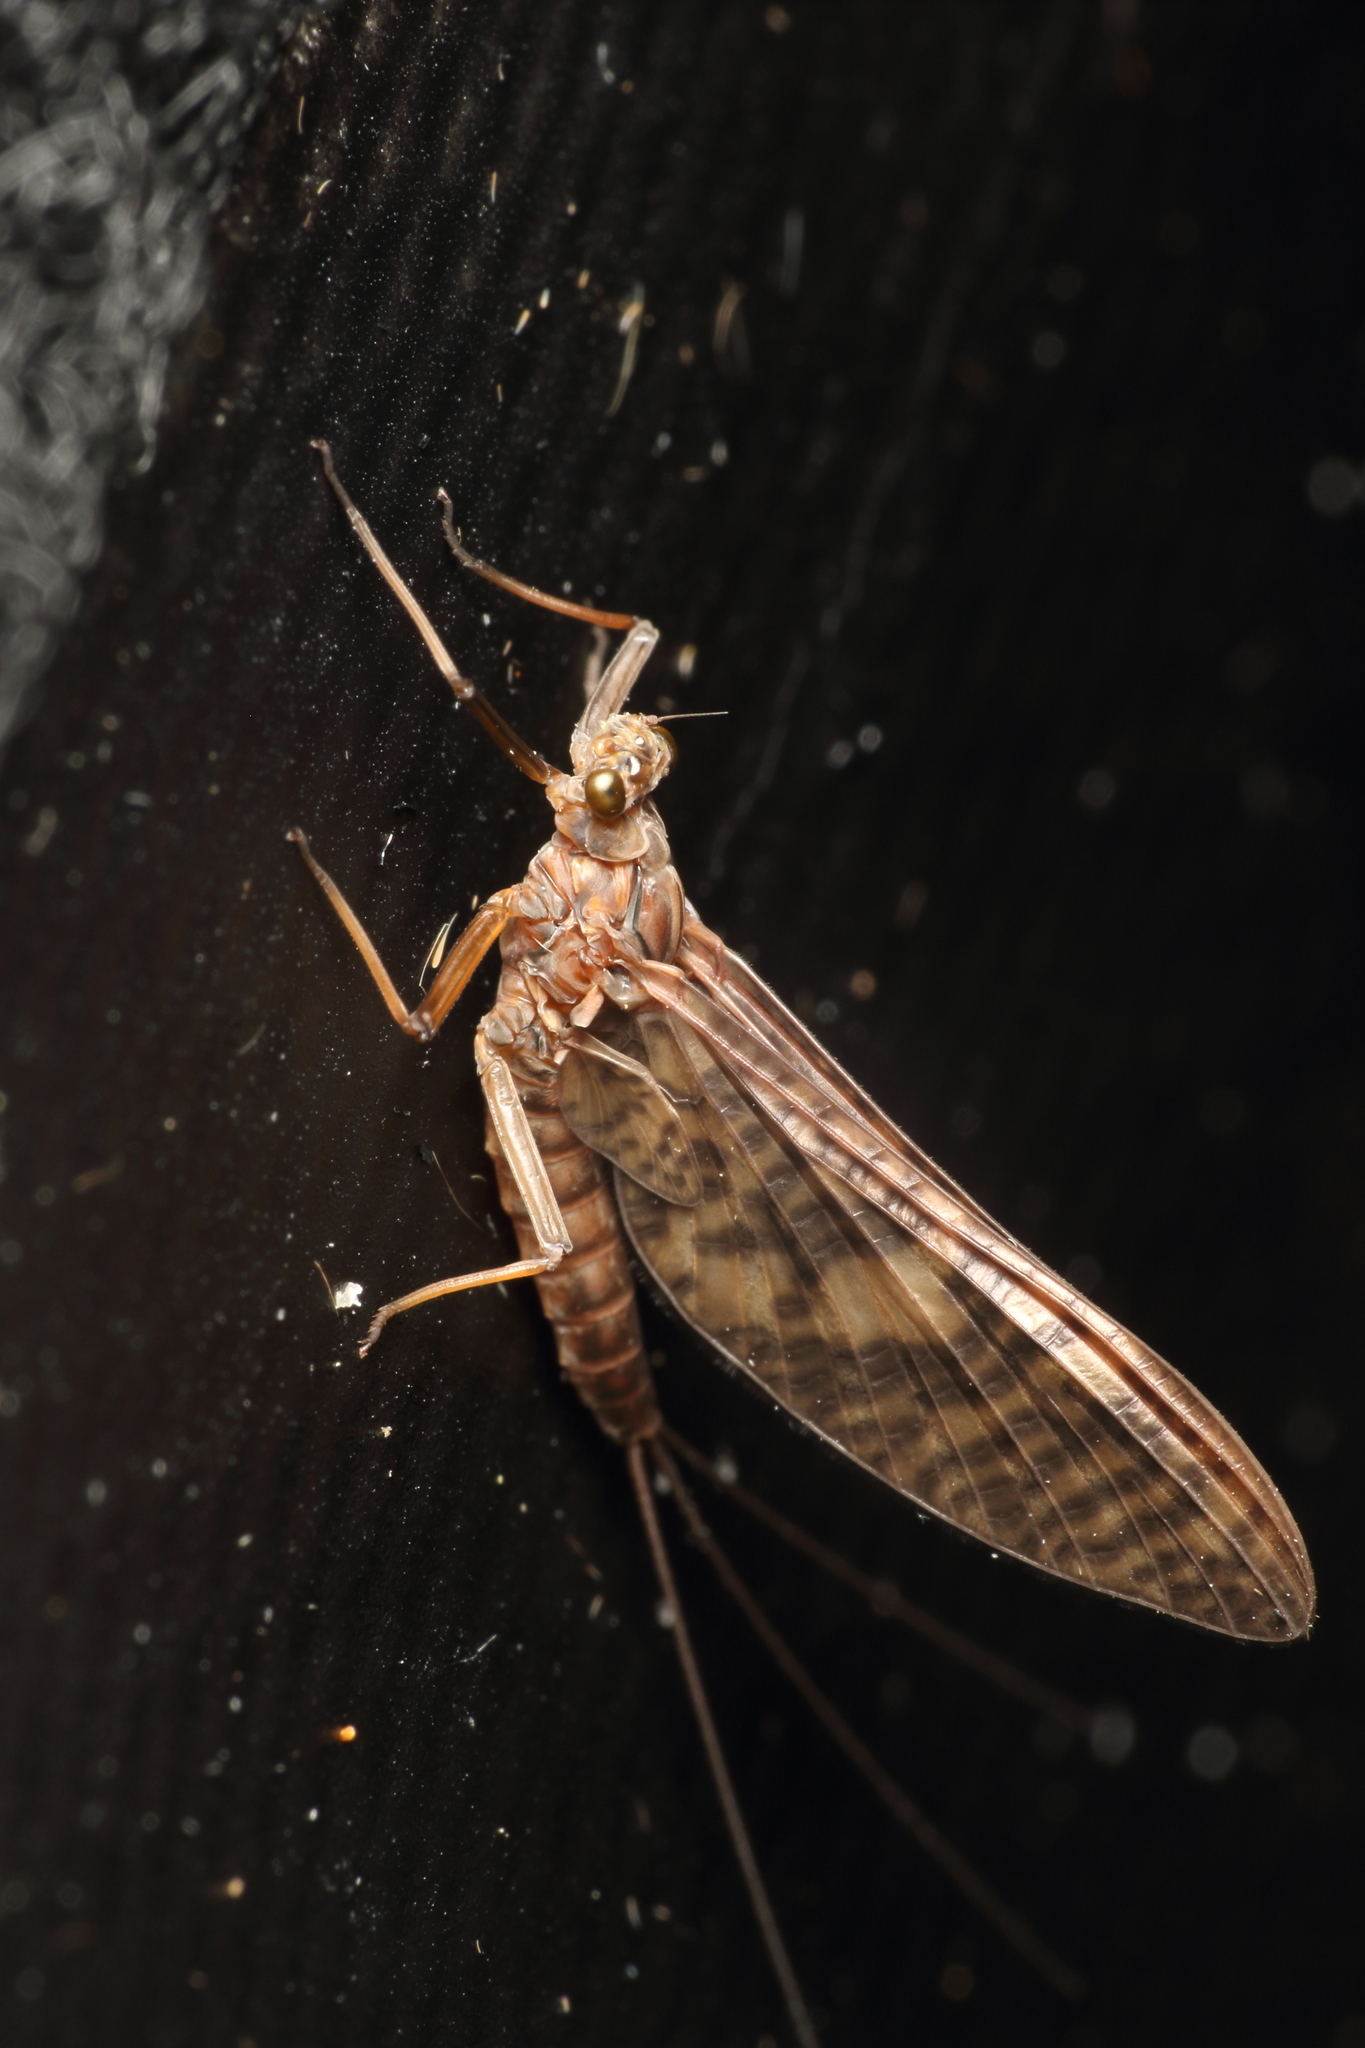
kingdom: Animalia
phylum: Arthropoda
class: Insecta
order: Ephemeroptera
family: Leptophlebiidae
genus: Deleatidium
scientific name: Deleatidium myzobranchia
